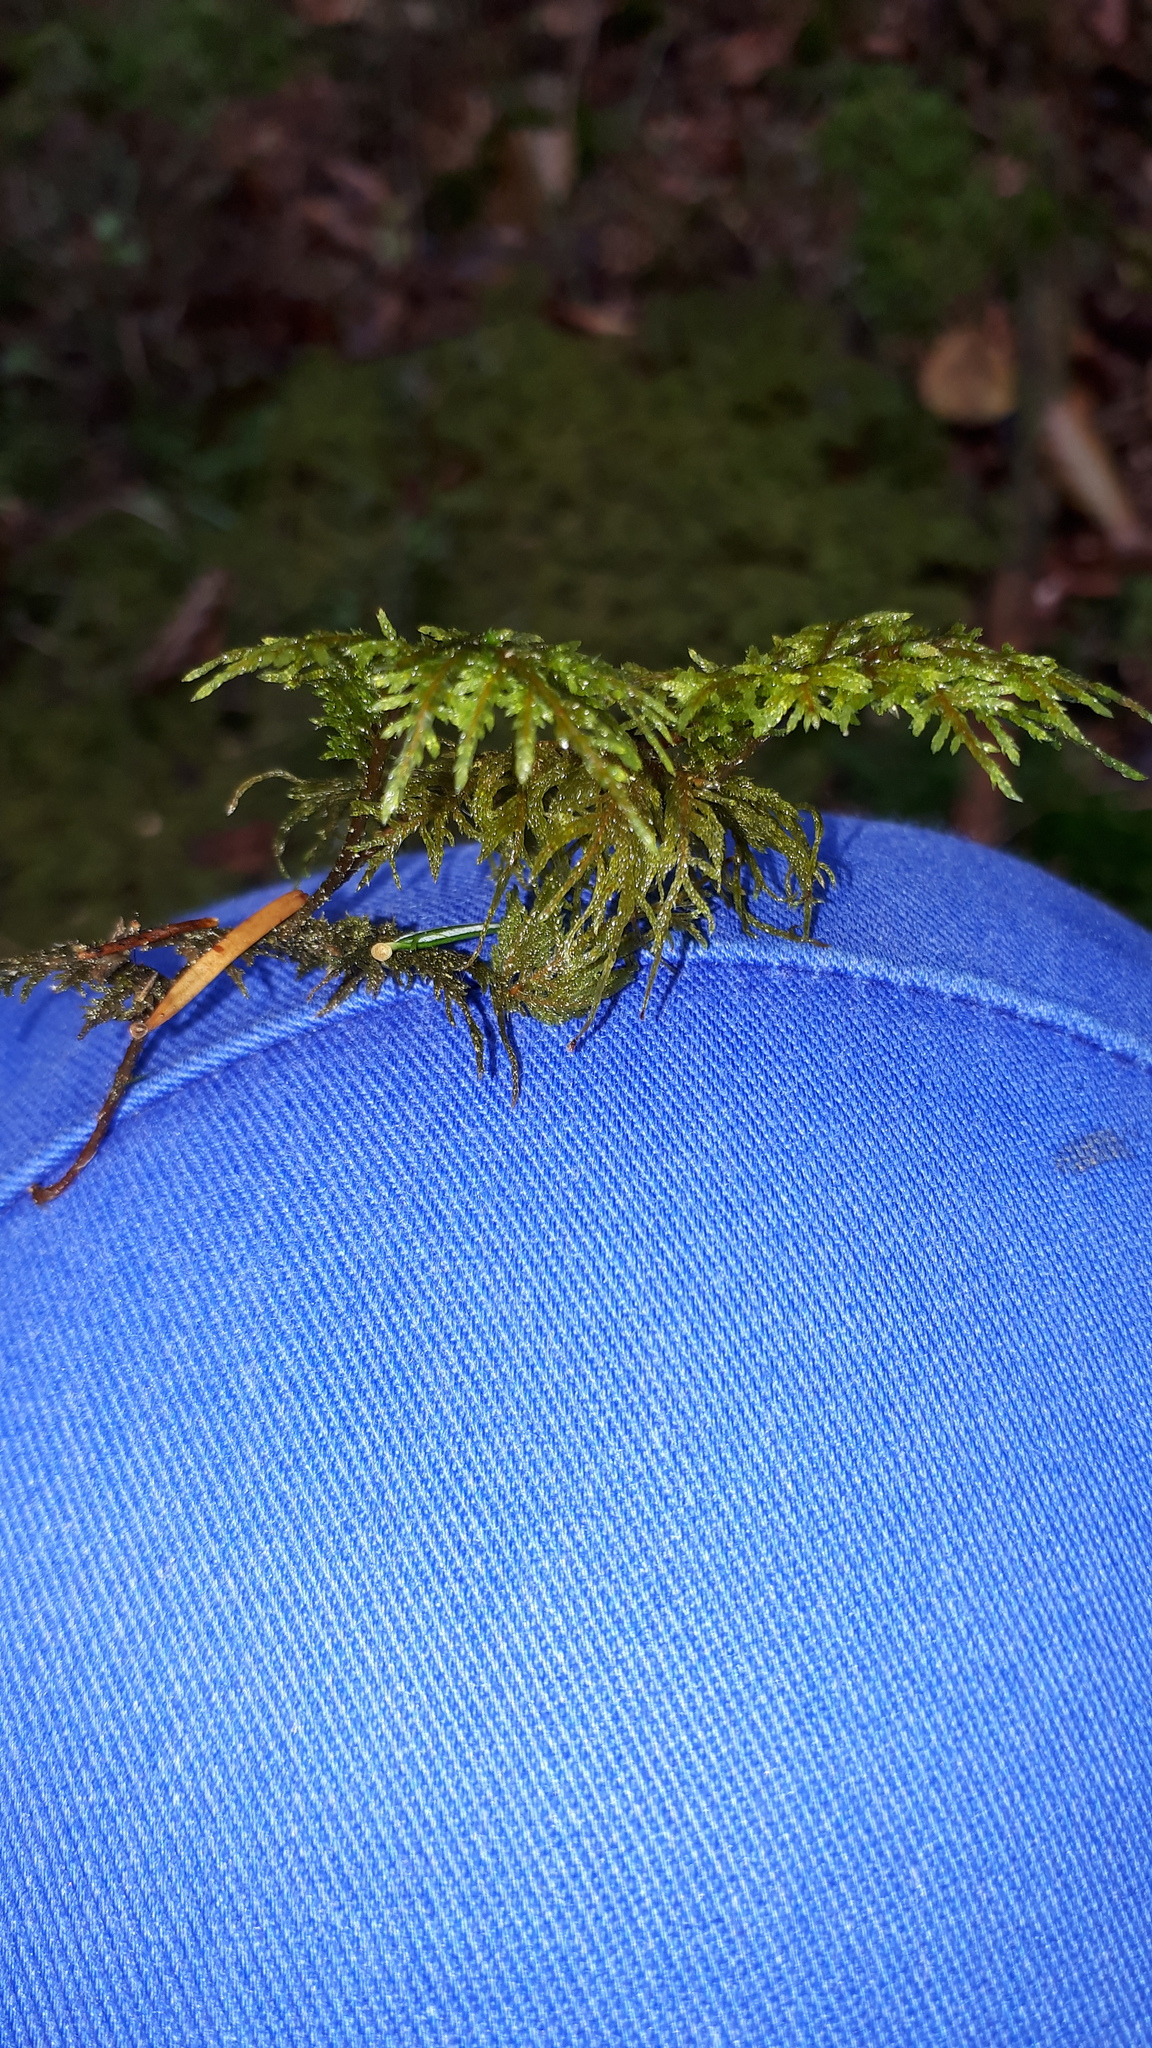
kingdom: Plantae
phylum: Bryophyta
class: Bryopsida
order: Hypnales
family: Hylocomiaceae
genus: Hylocomium
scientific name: Hylocomium splendens
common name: Stairstep moss
